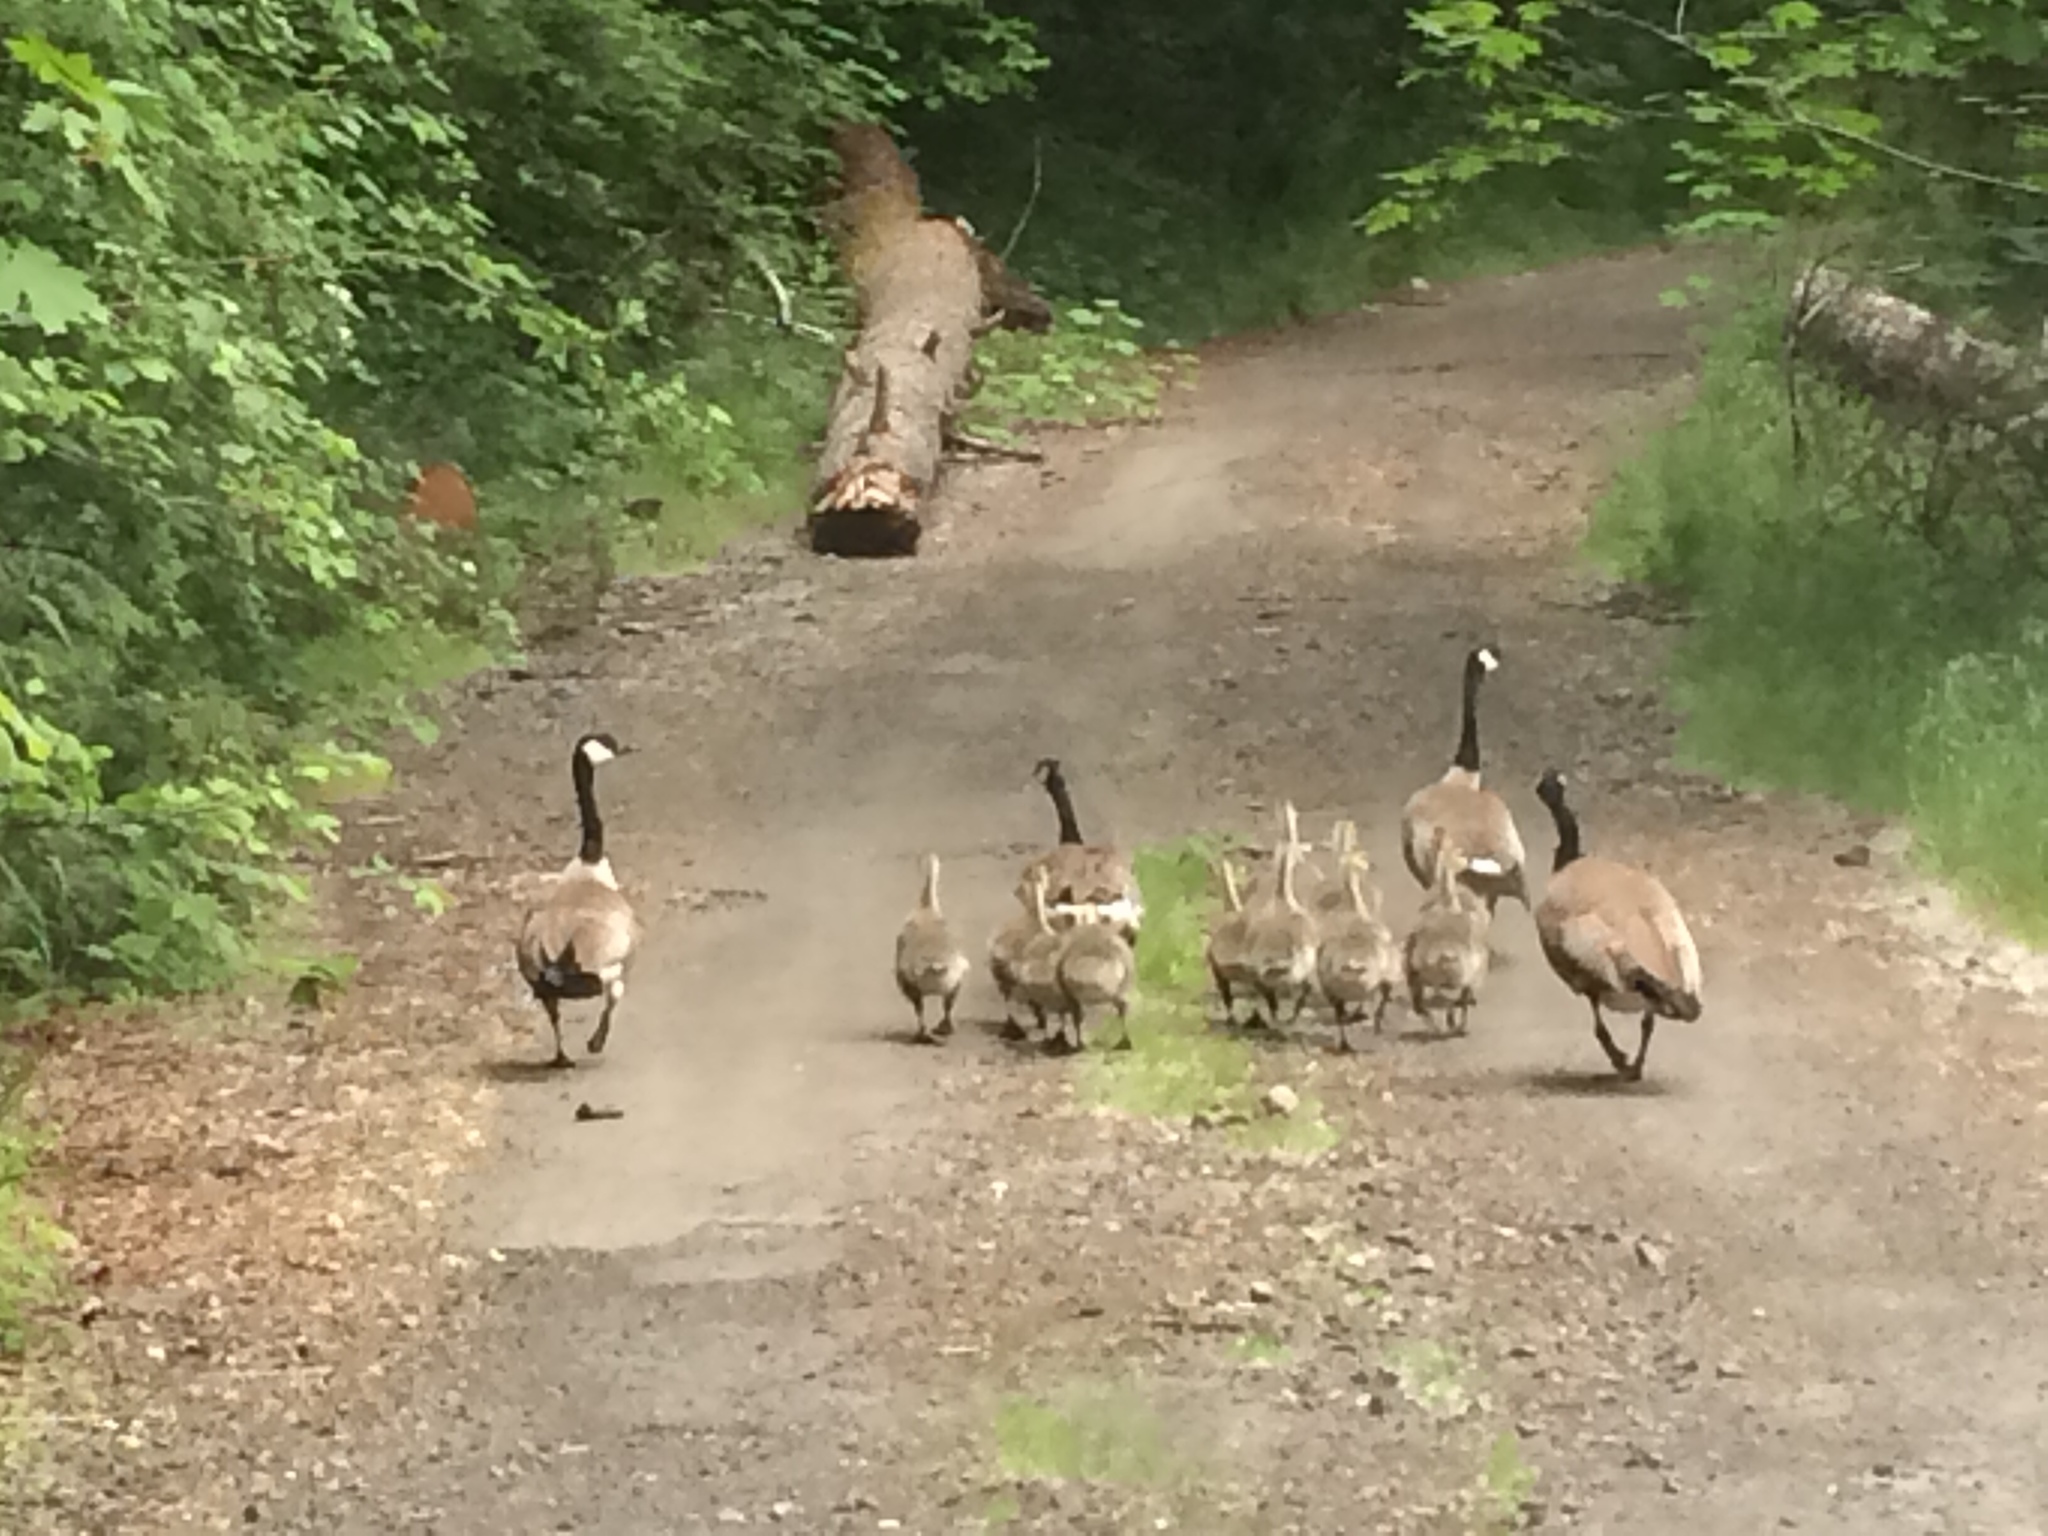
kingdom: Animalia
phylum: Chordata
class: Aves
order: Anseriformes
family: Anatidae
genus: Branta
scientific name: Branta canadensis
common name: Canada goose
